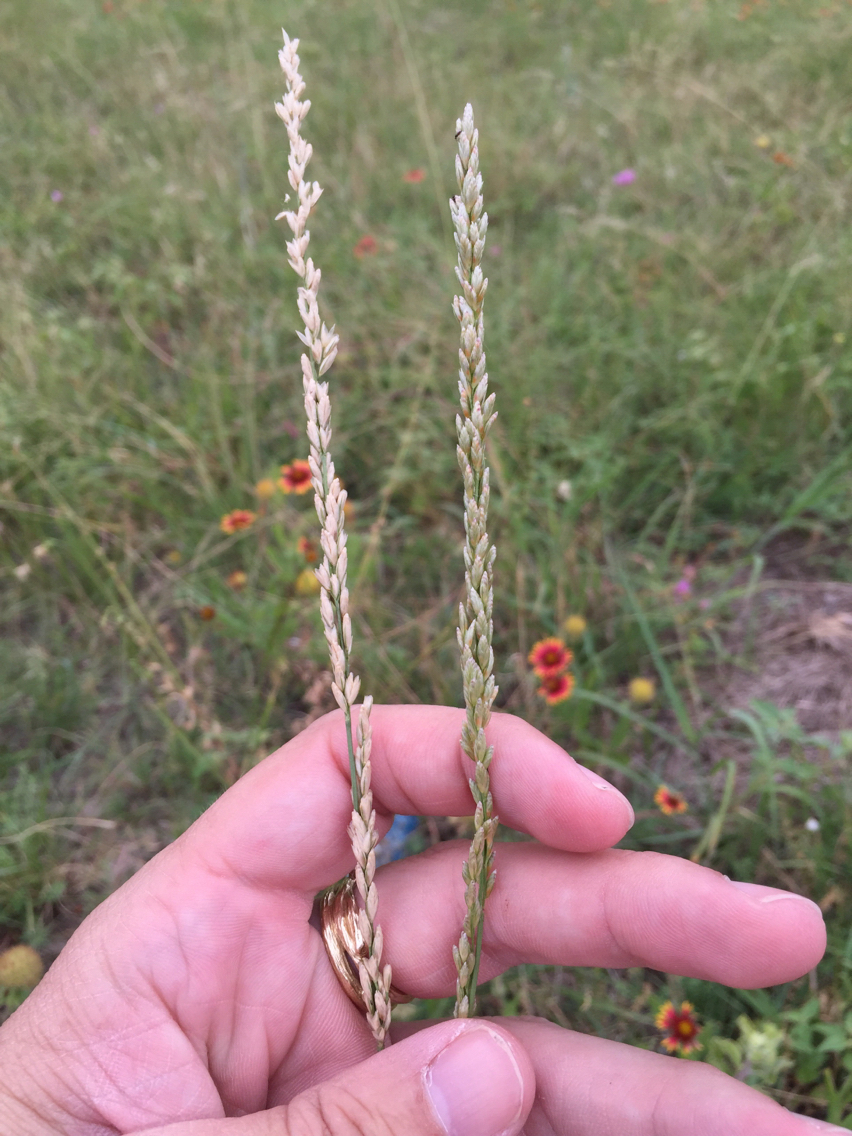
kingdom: Plantae
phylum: Tracheophyta
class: Liliopsida
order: Poales
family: Poaceae
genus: Tridens
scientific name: Tridens albescens
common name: White tridens
